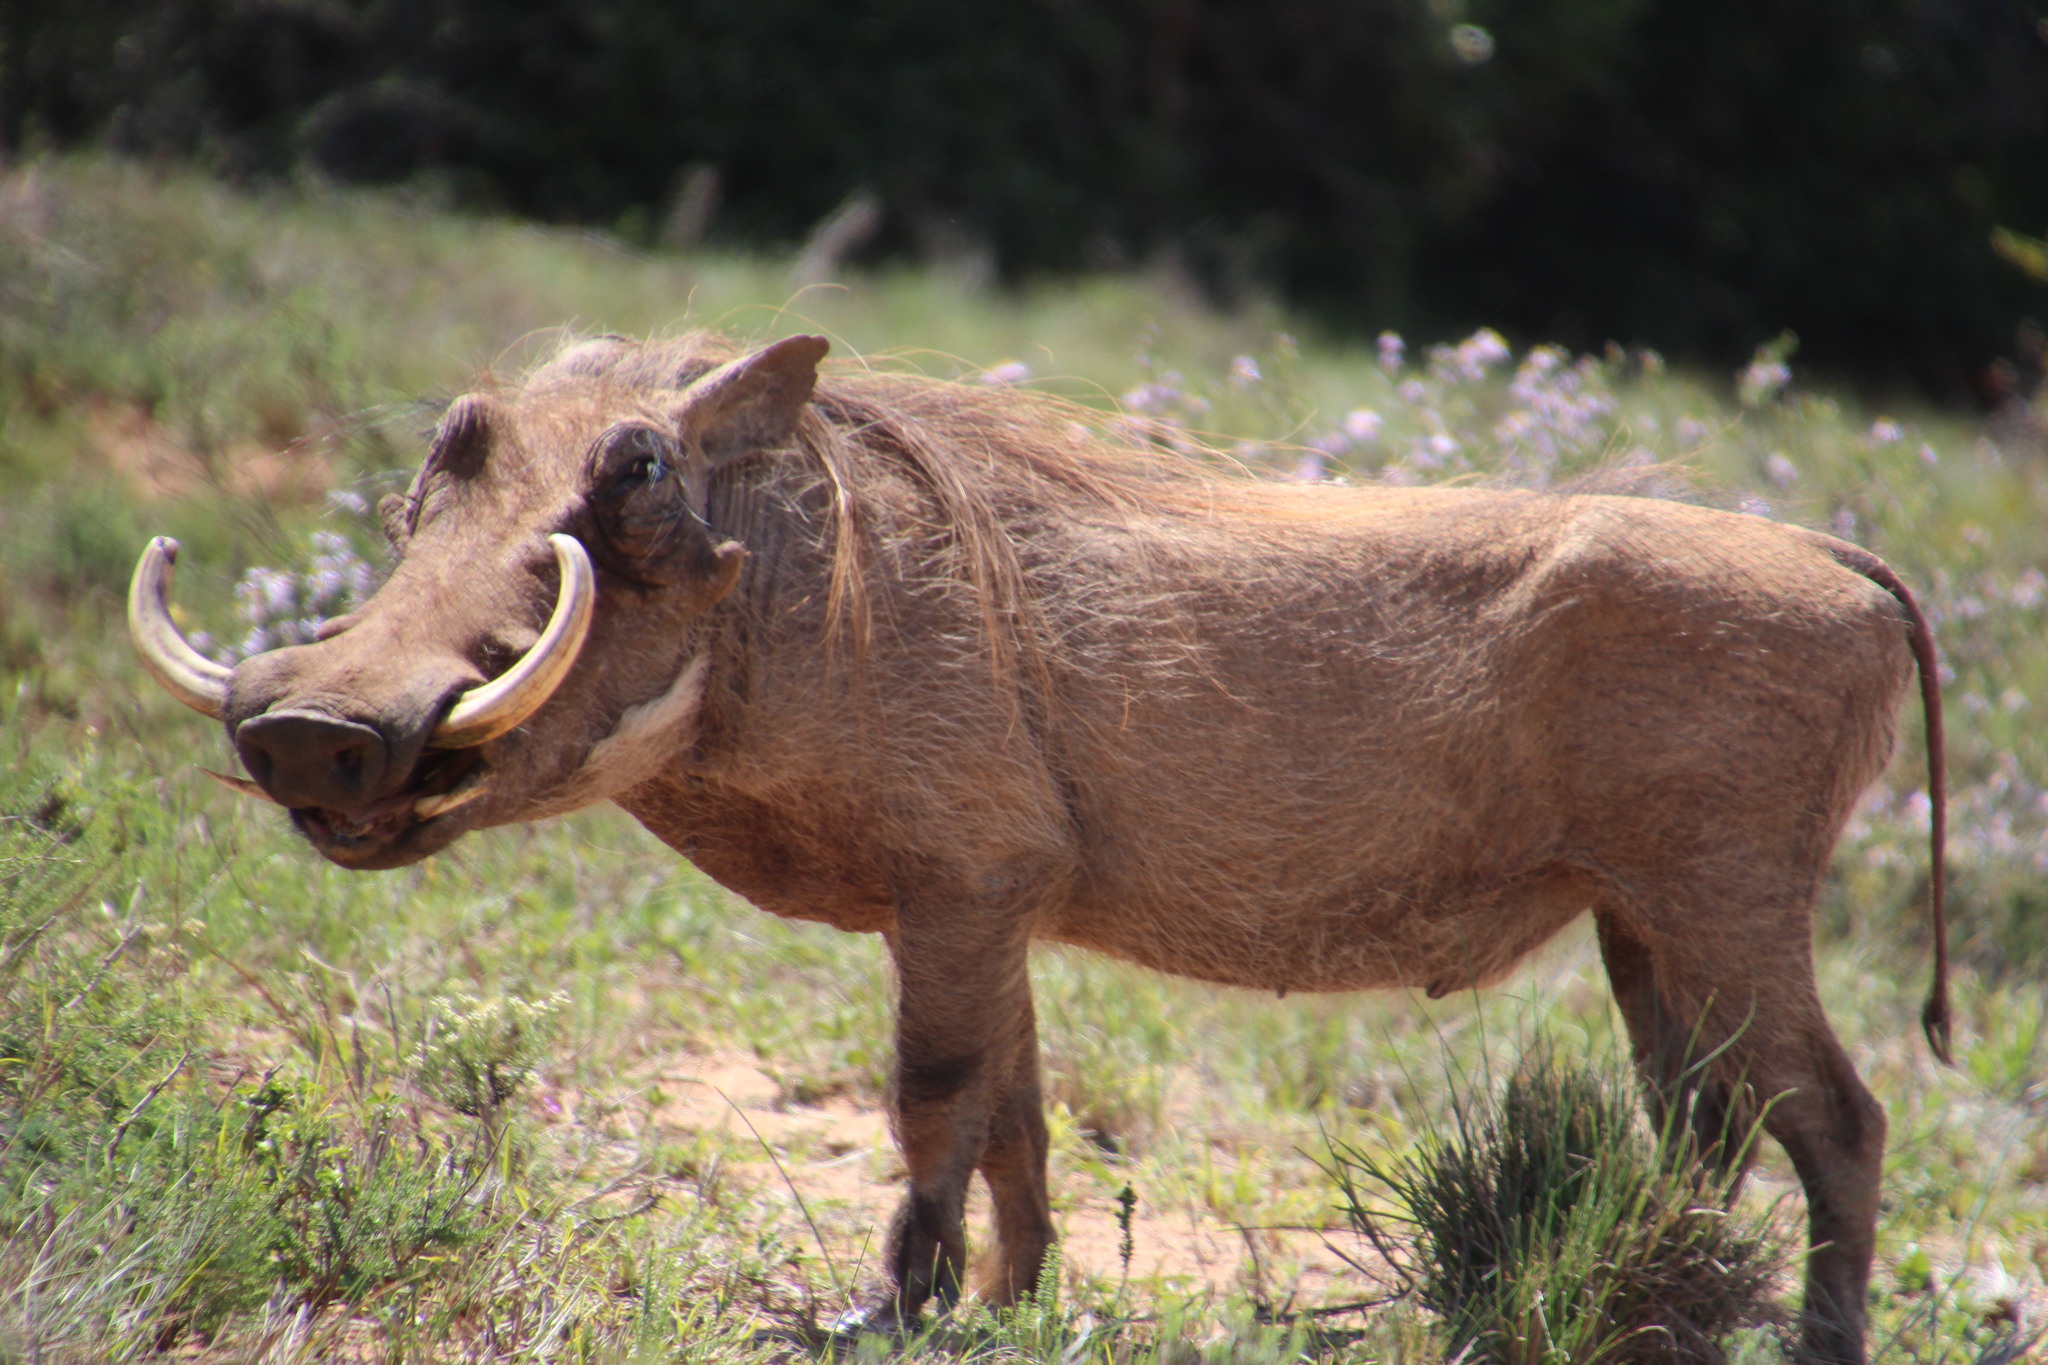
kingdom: Animalia
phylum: Chordata
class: Mammalia
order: Artiodactyla
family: Suidae
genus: Phacochoerus
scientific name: Phacochoerus africanus
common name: Common warthog
